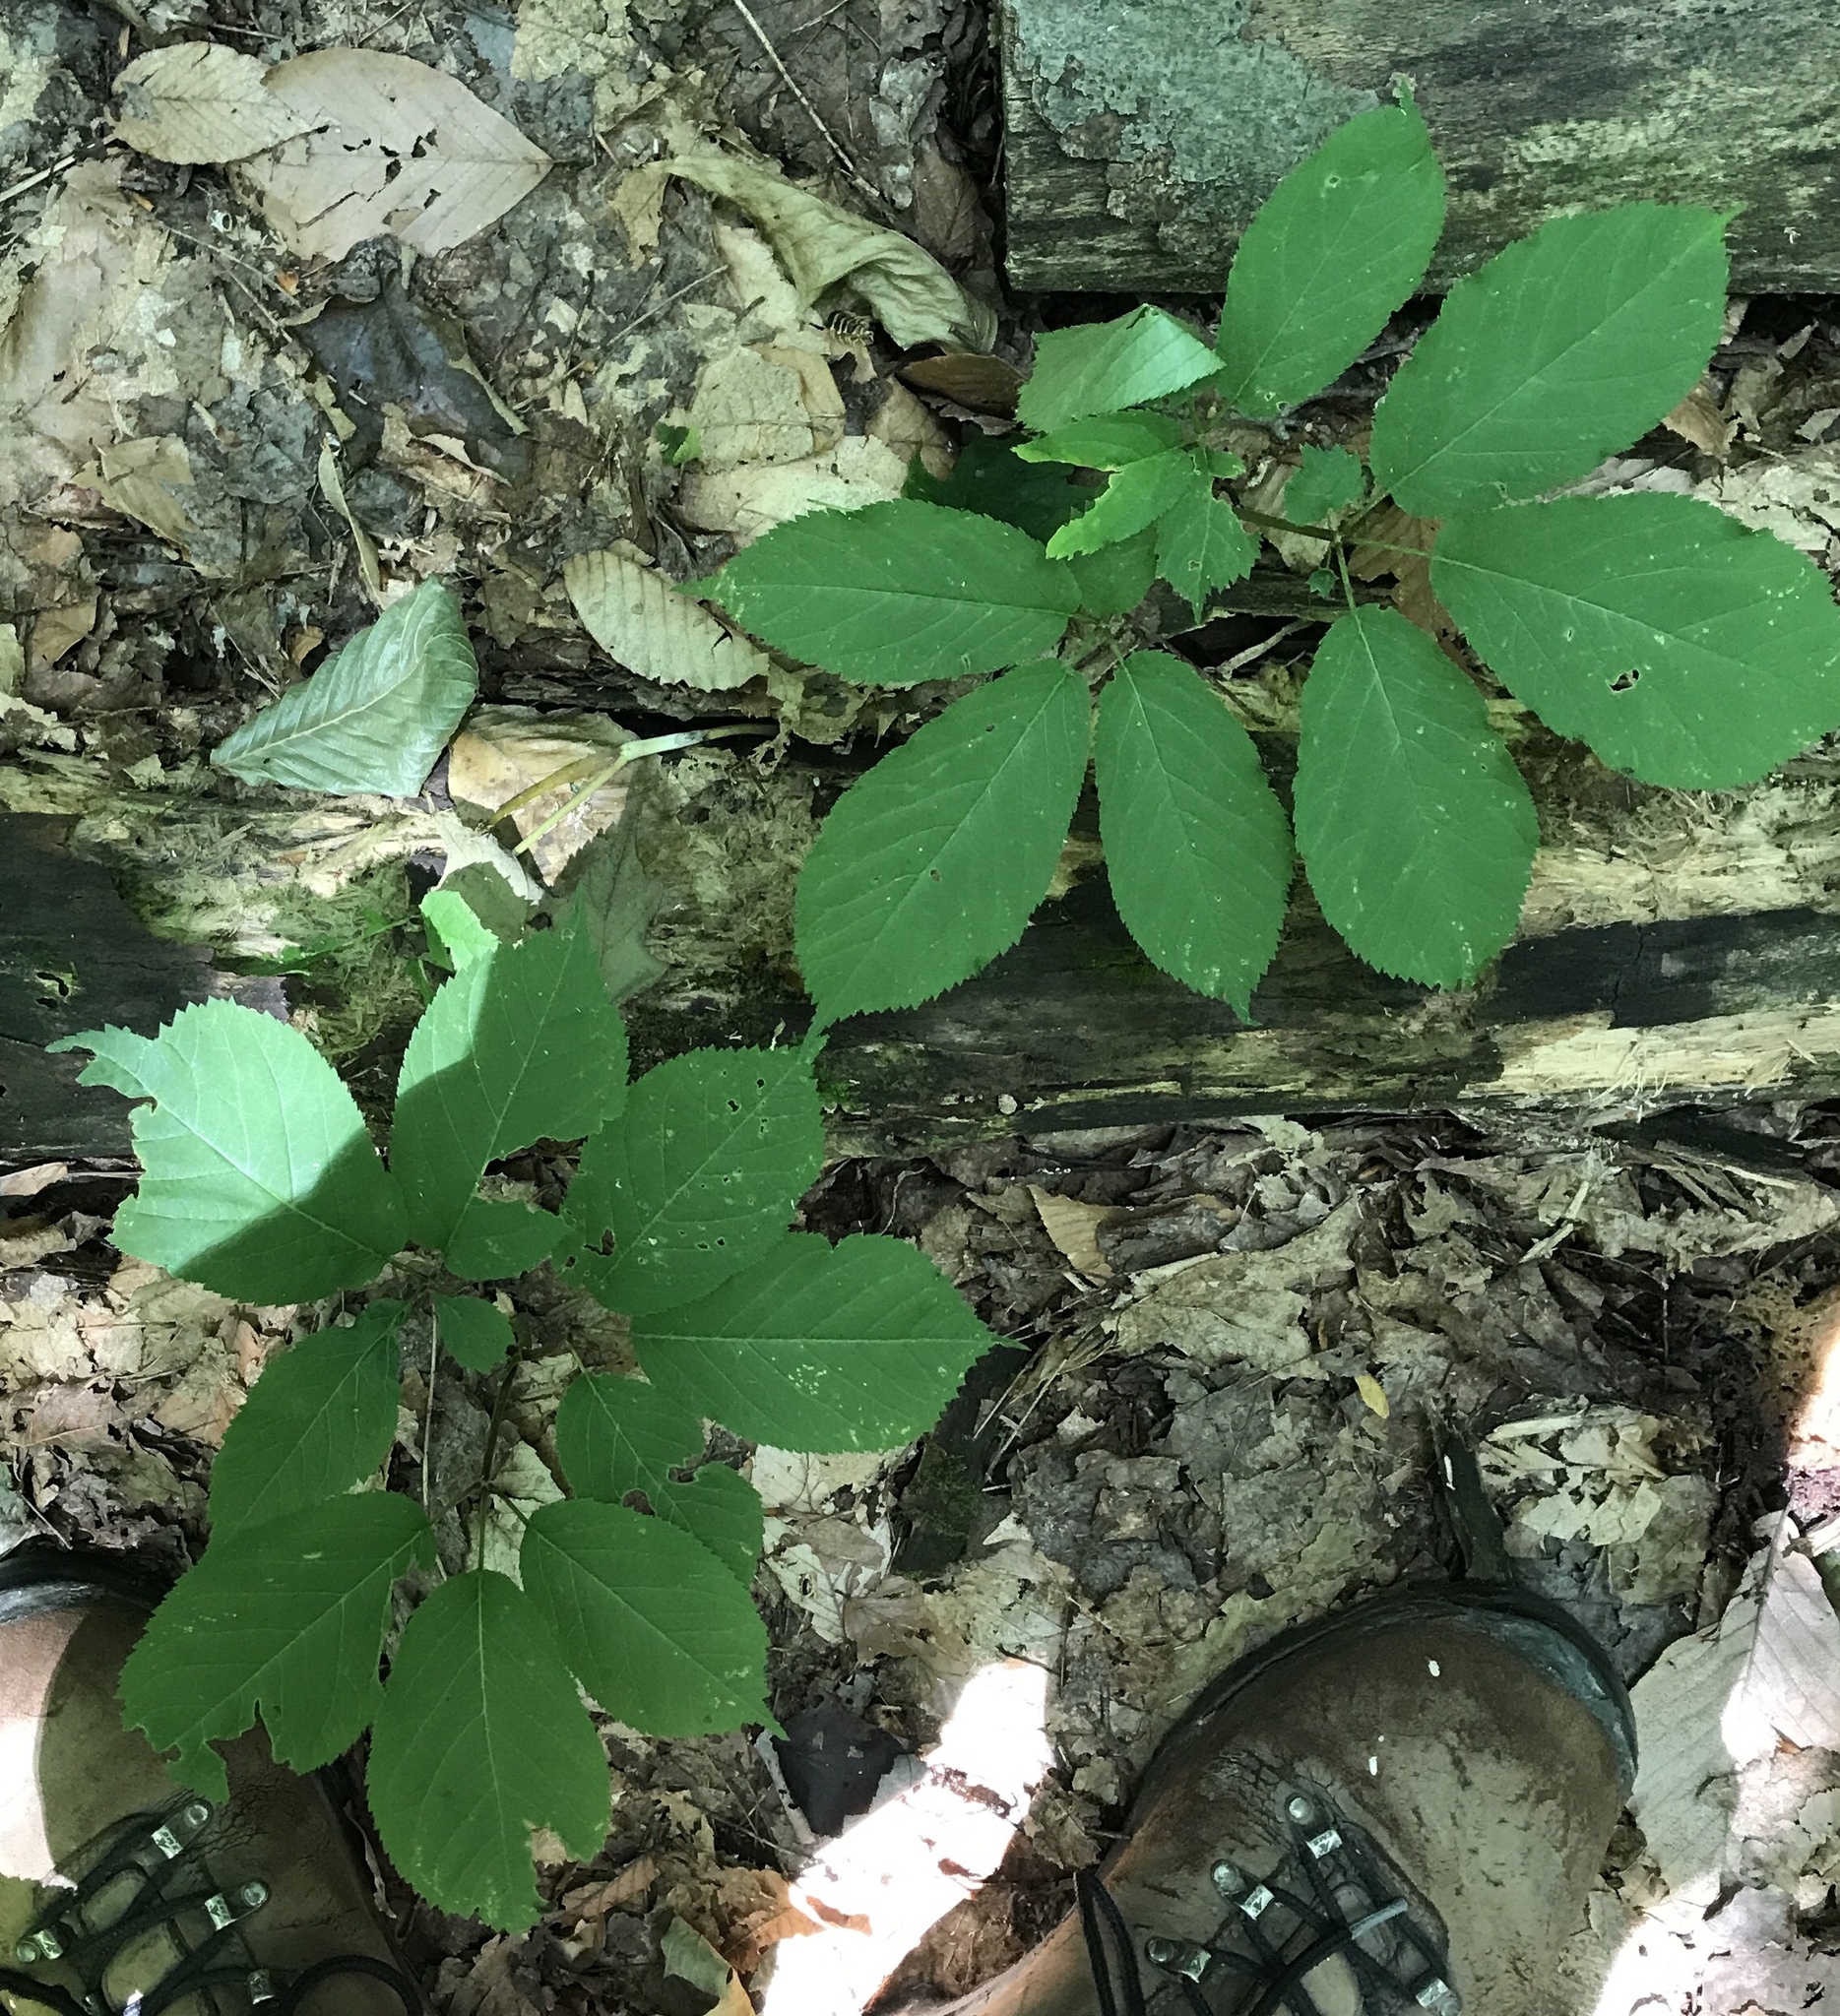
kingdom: Plantae
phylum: Tracheophyta
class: Magnoliopsida
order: Apiales
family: Araliaceae
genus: Panax
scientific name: Panax quinquefolius
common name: American ginseng
